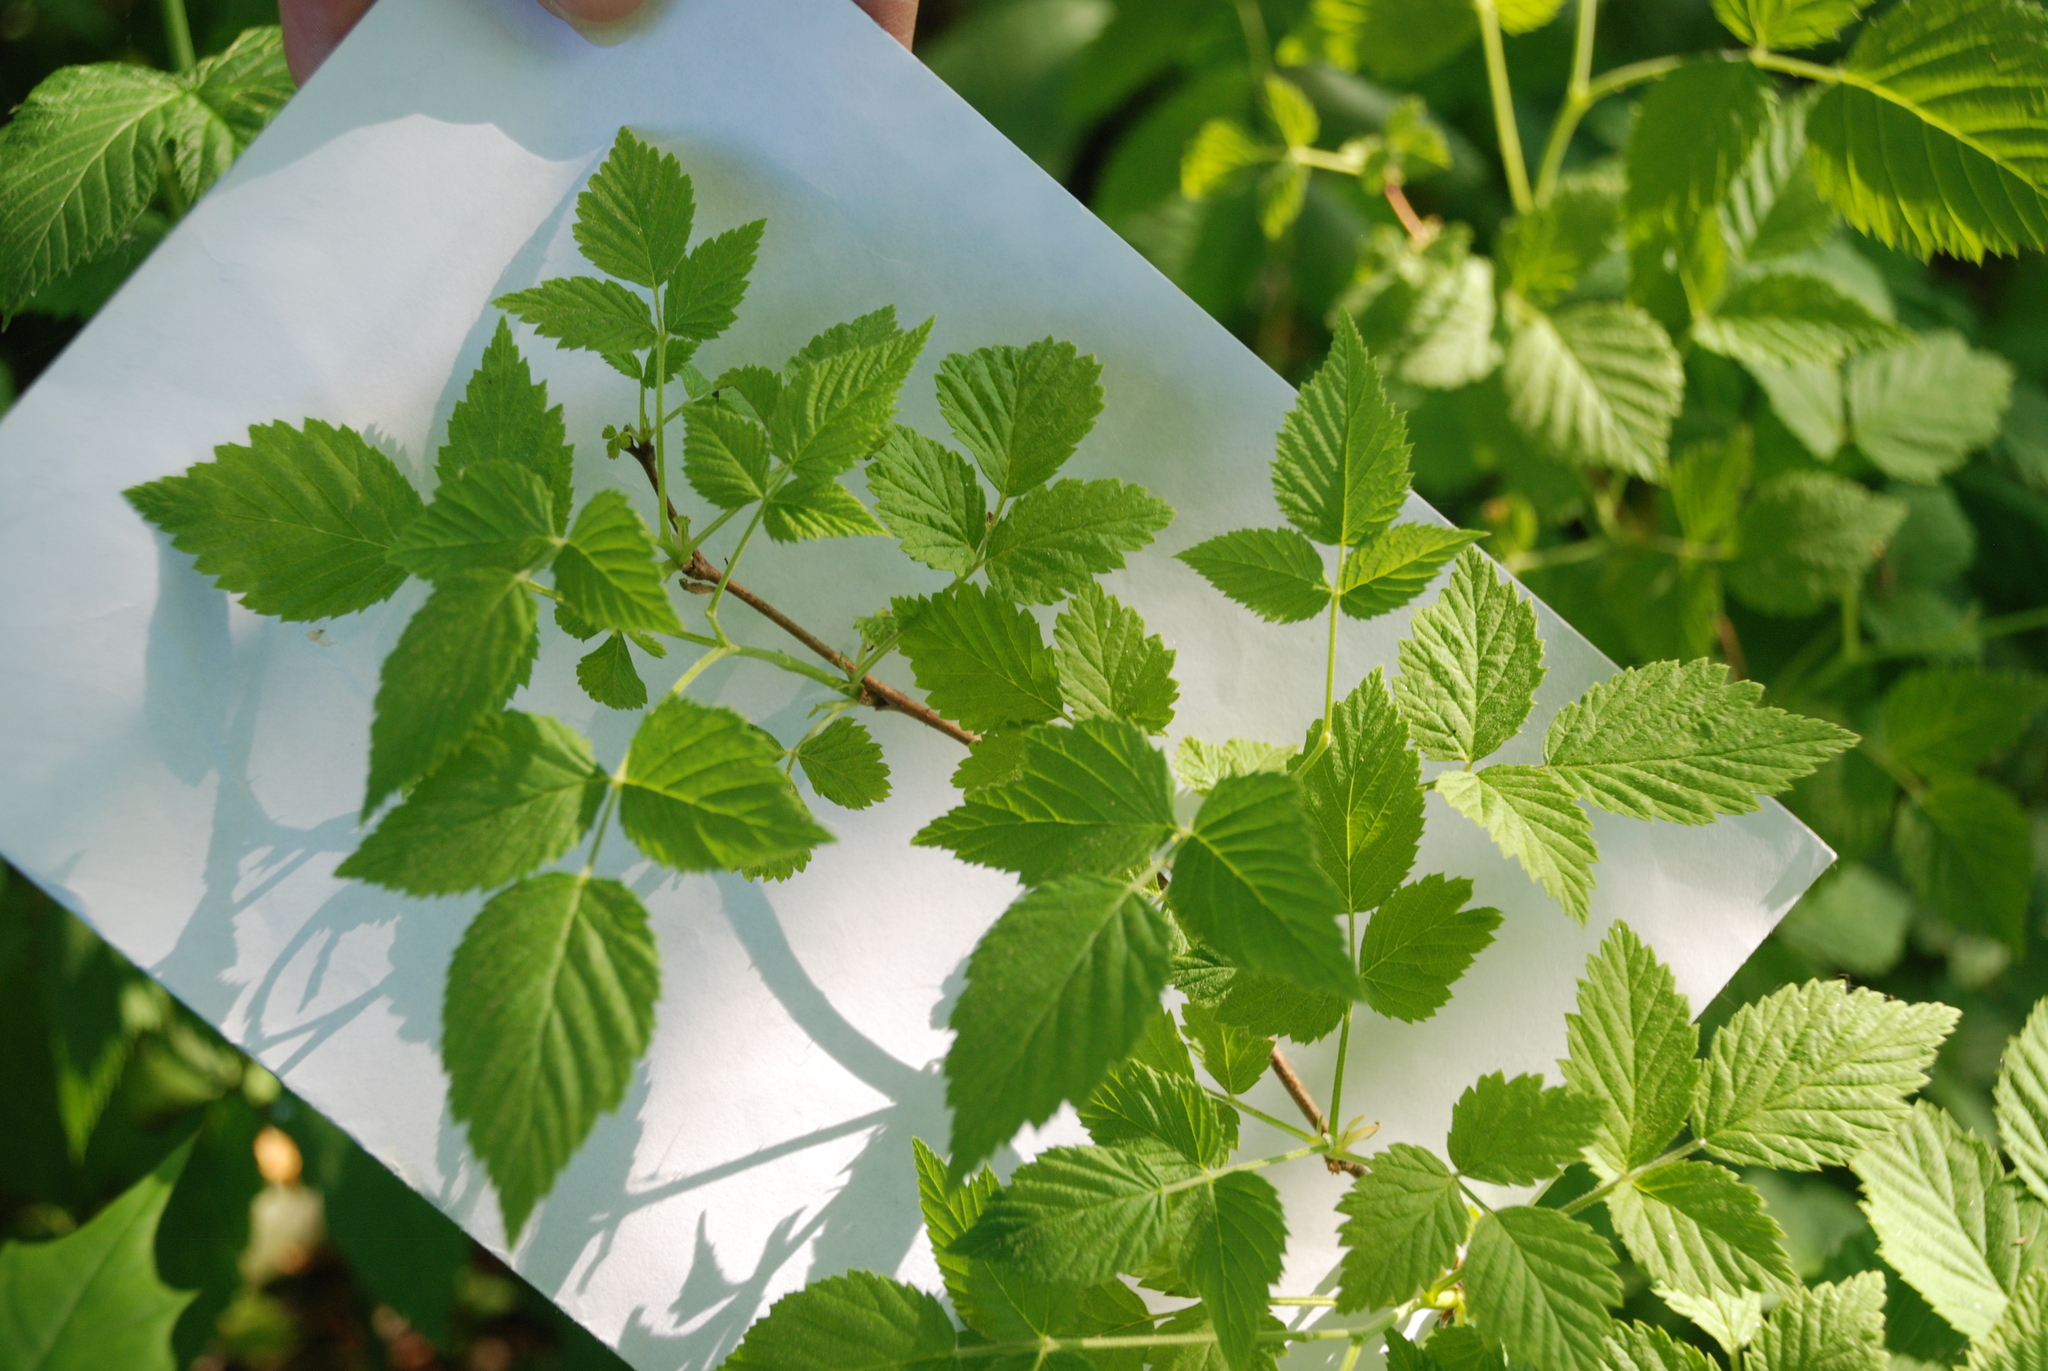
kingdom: Plantae
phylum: Tracheophyta
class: Magnoliopsida
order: Rosales
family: Rosaceae
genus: Rubus
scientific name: Rubus idaeus
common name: Raspberry
